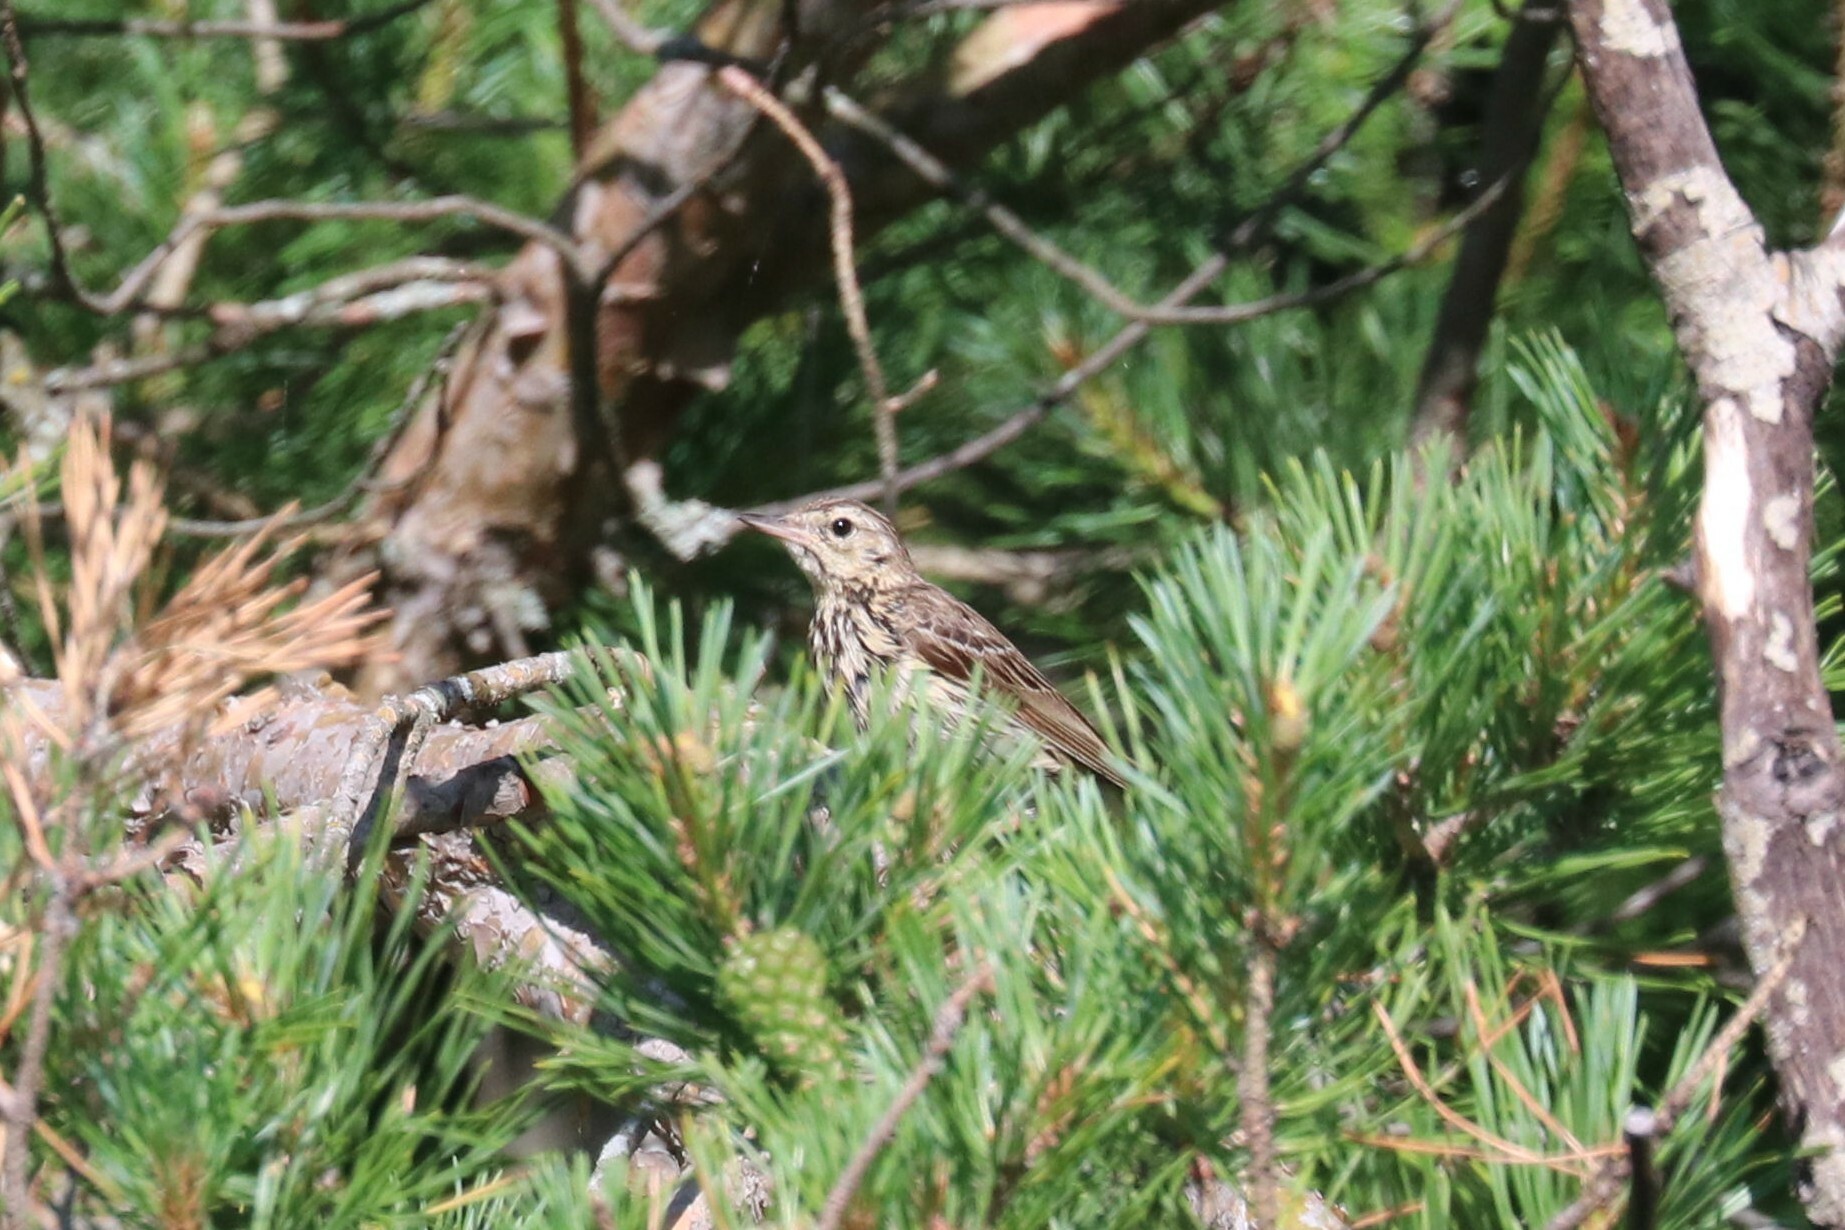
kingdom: Animalia
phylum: Chordata
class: Aves
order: Passeriformes
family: Motacillidae
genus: Anthus
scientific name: Anthus trivialis
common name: Tree pipit
